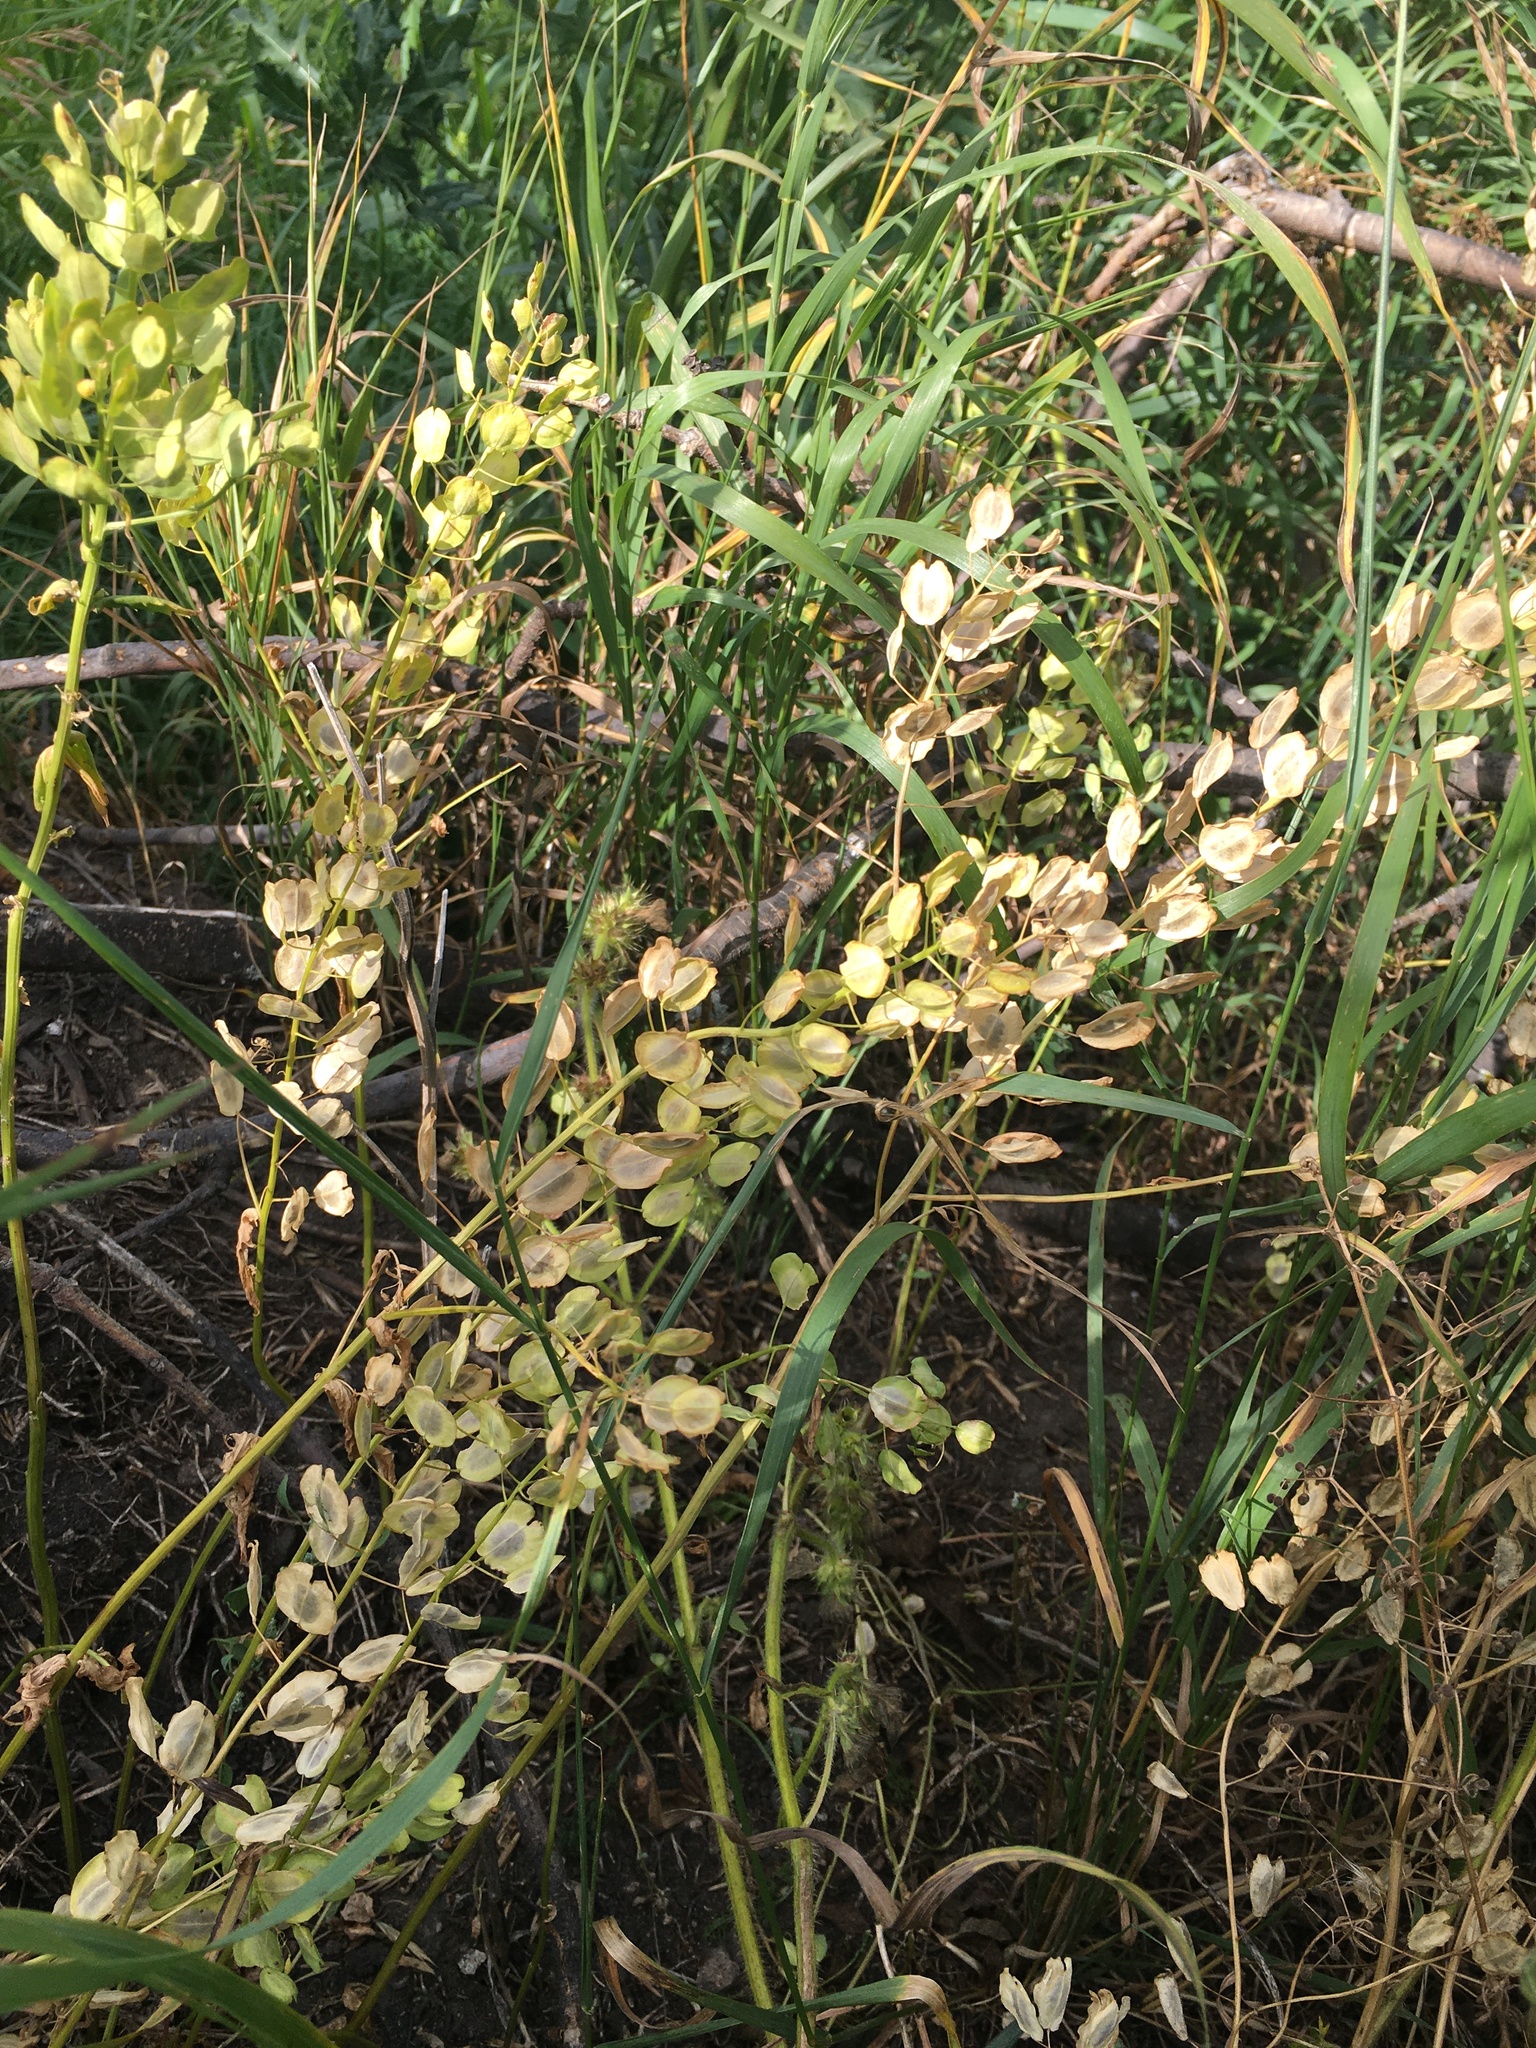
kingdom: Plantae
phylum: Tracheophyta
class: Magnoliopsida
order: Brassicales
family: Brassicaceae
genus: Thlaspi
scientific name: Thlaspi arvense
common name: Field pennycress
